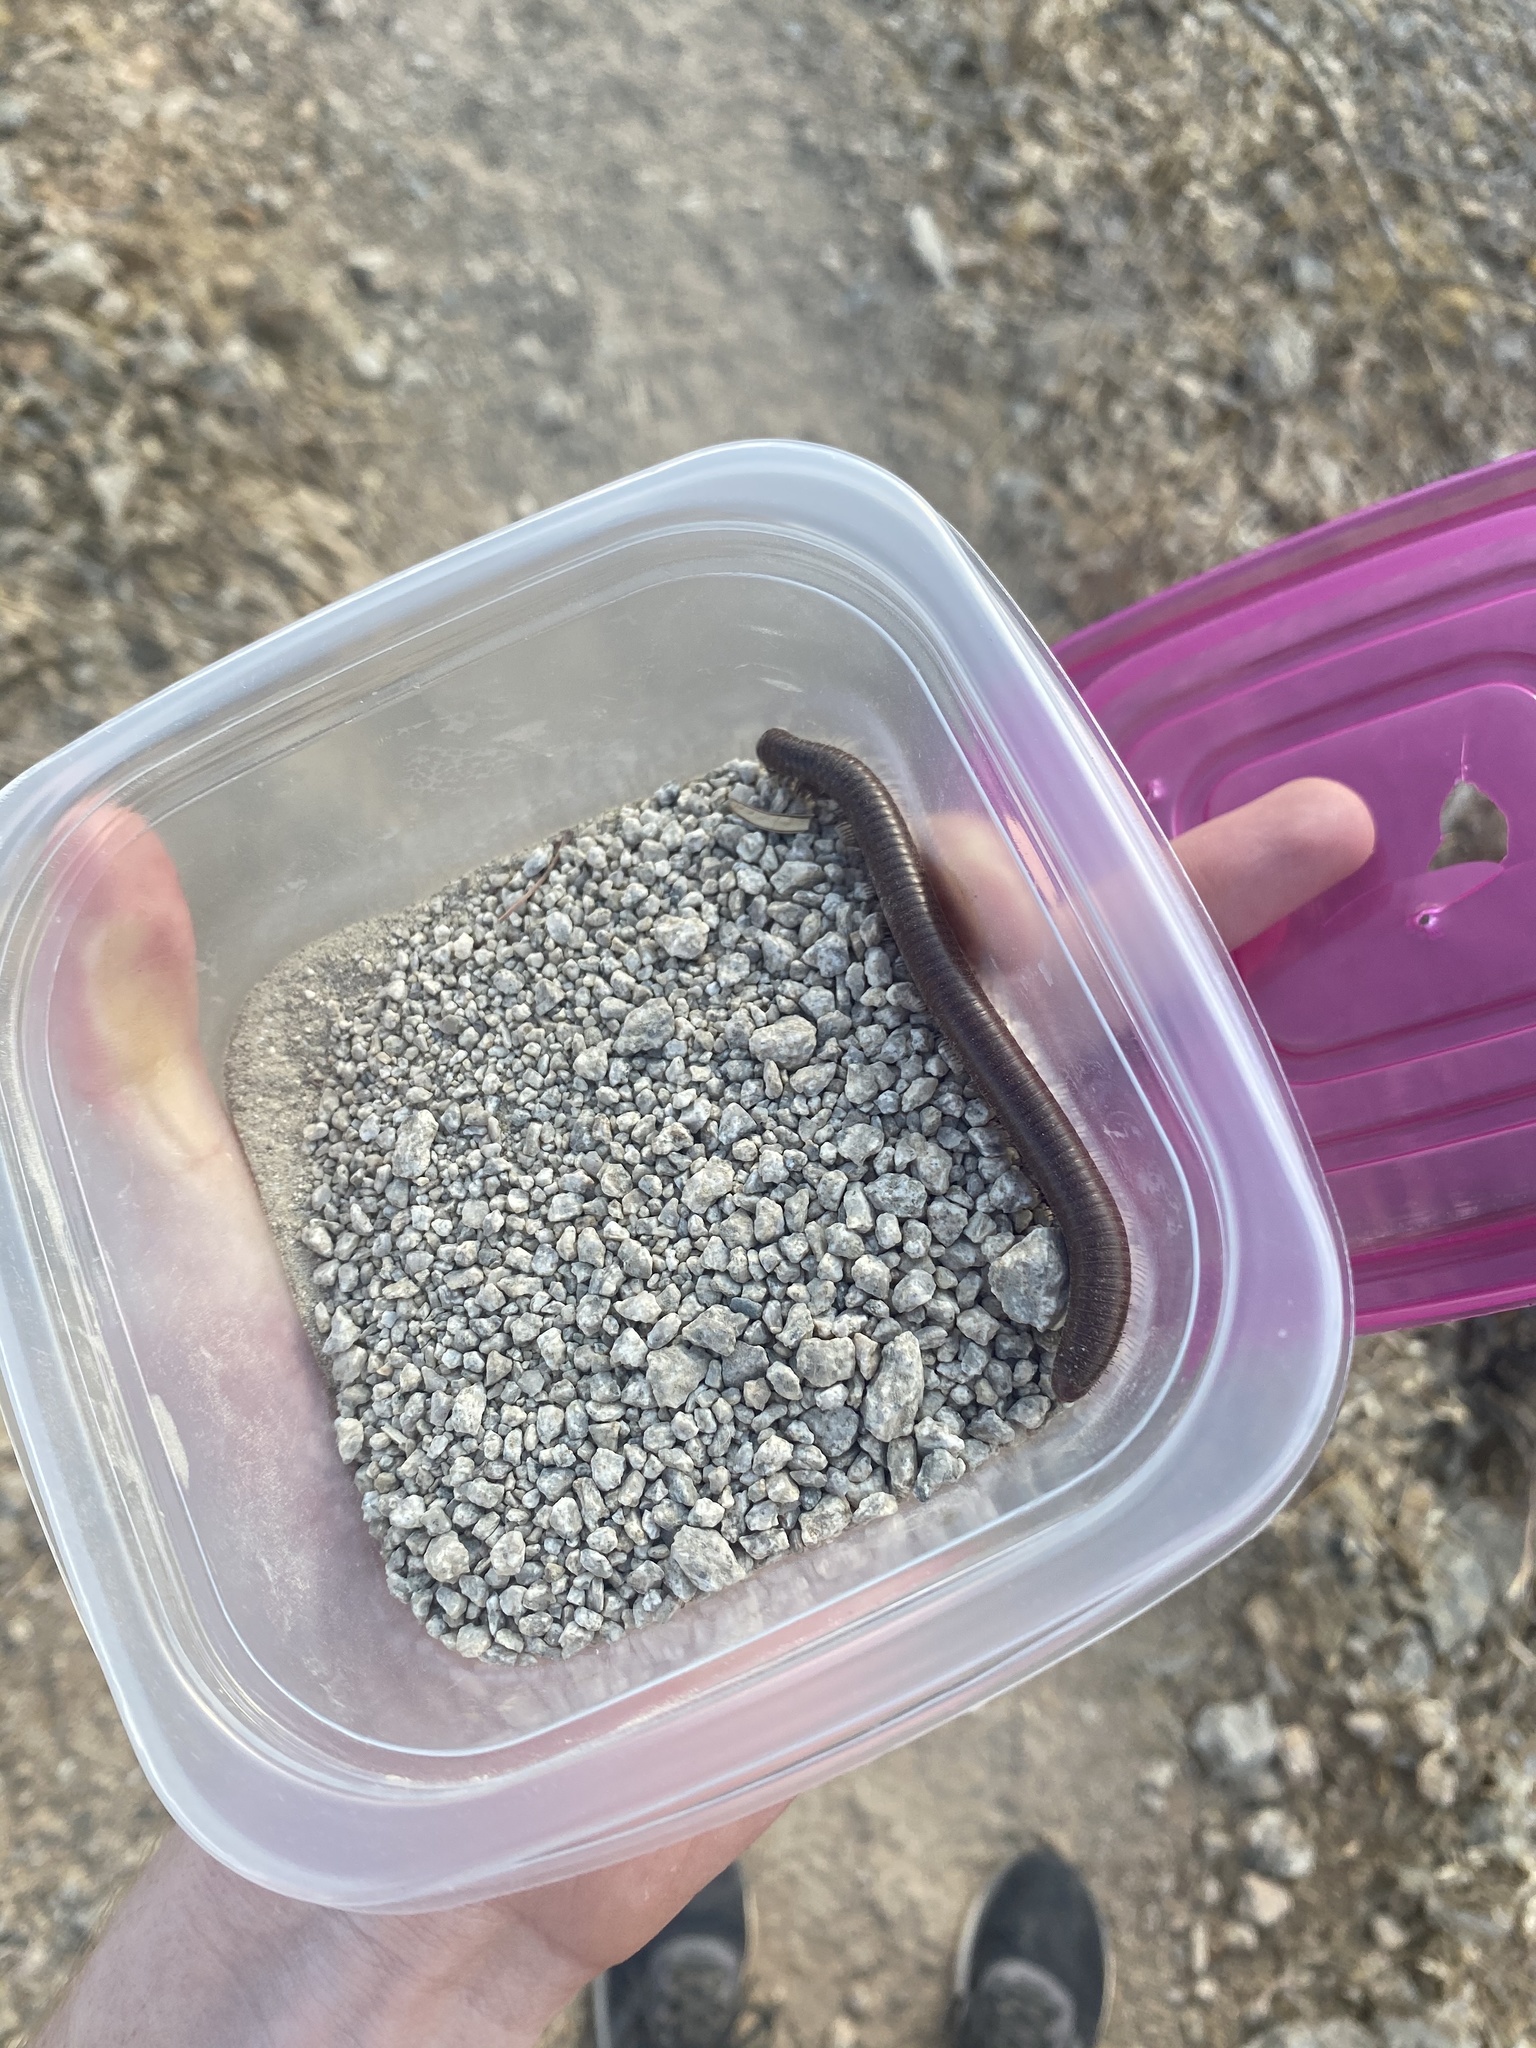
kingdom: Animalia
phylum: Arthropoda
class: Diplopoda
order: Spirostreptida
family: Spirostreptidae
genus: Orthoporus
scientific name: Orthoporus ornatus
